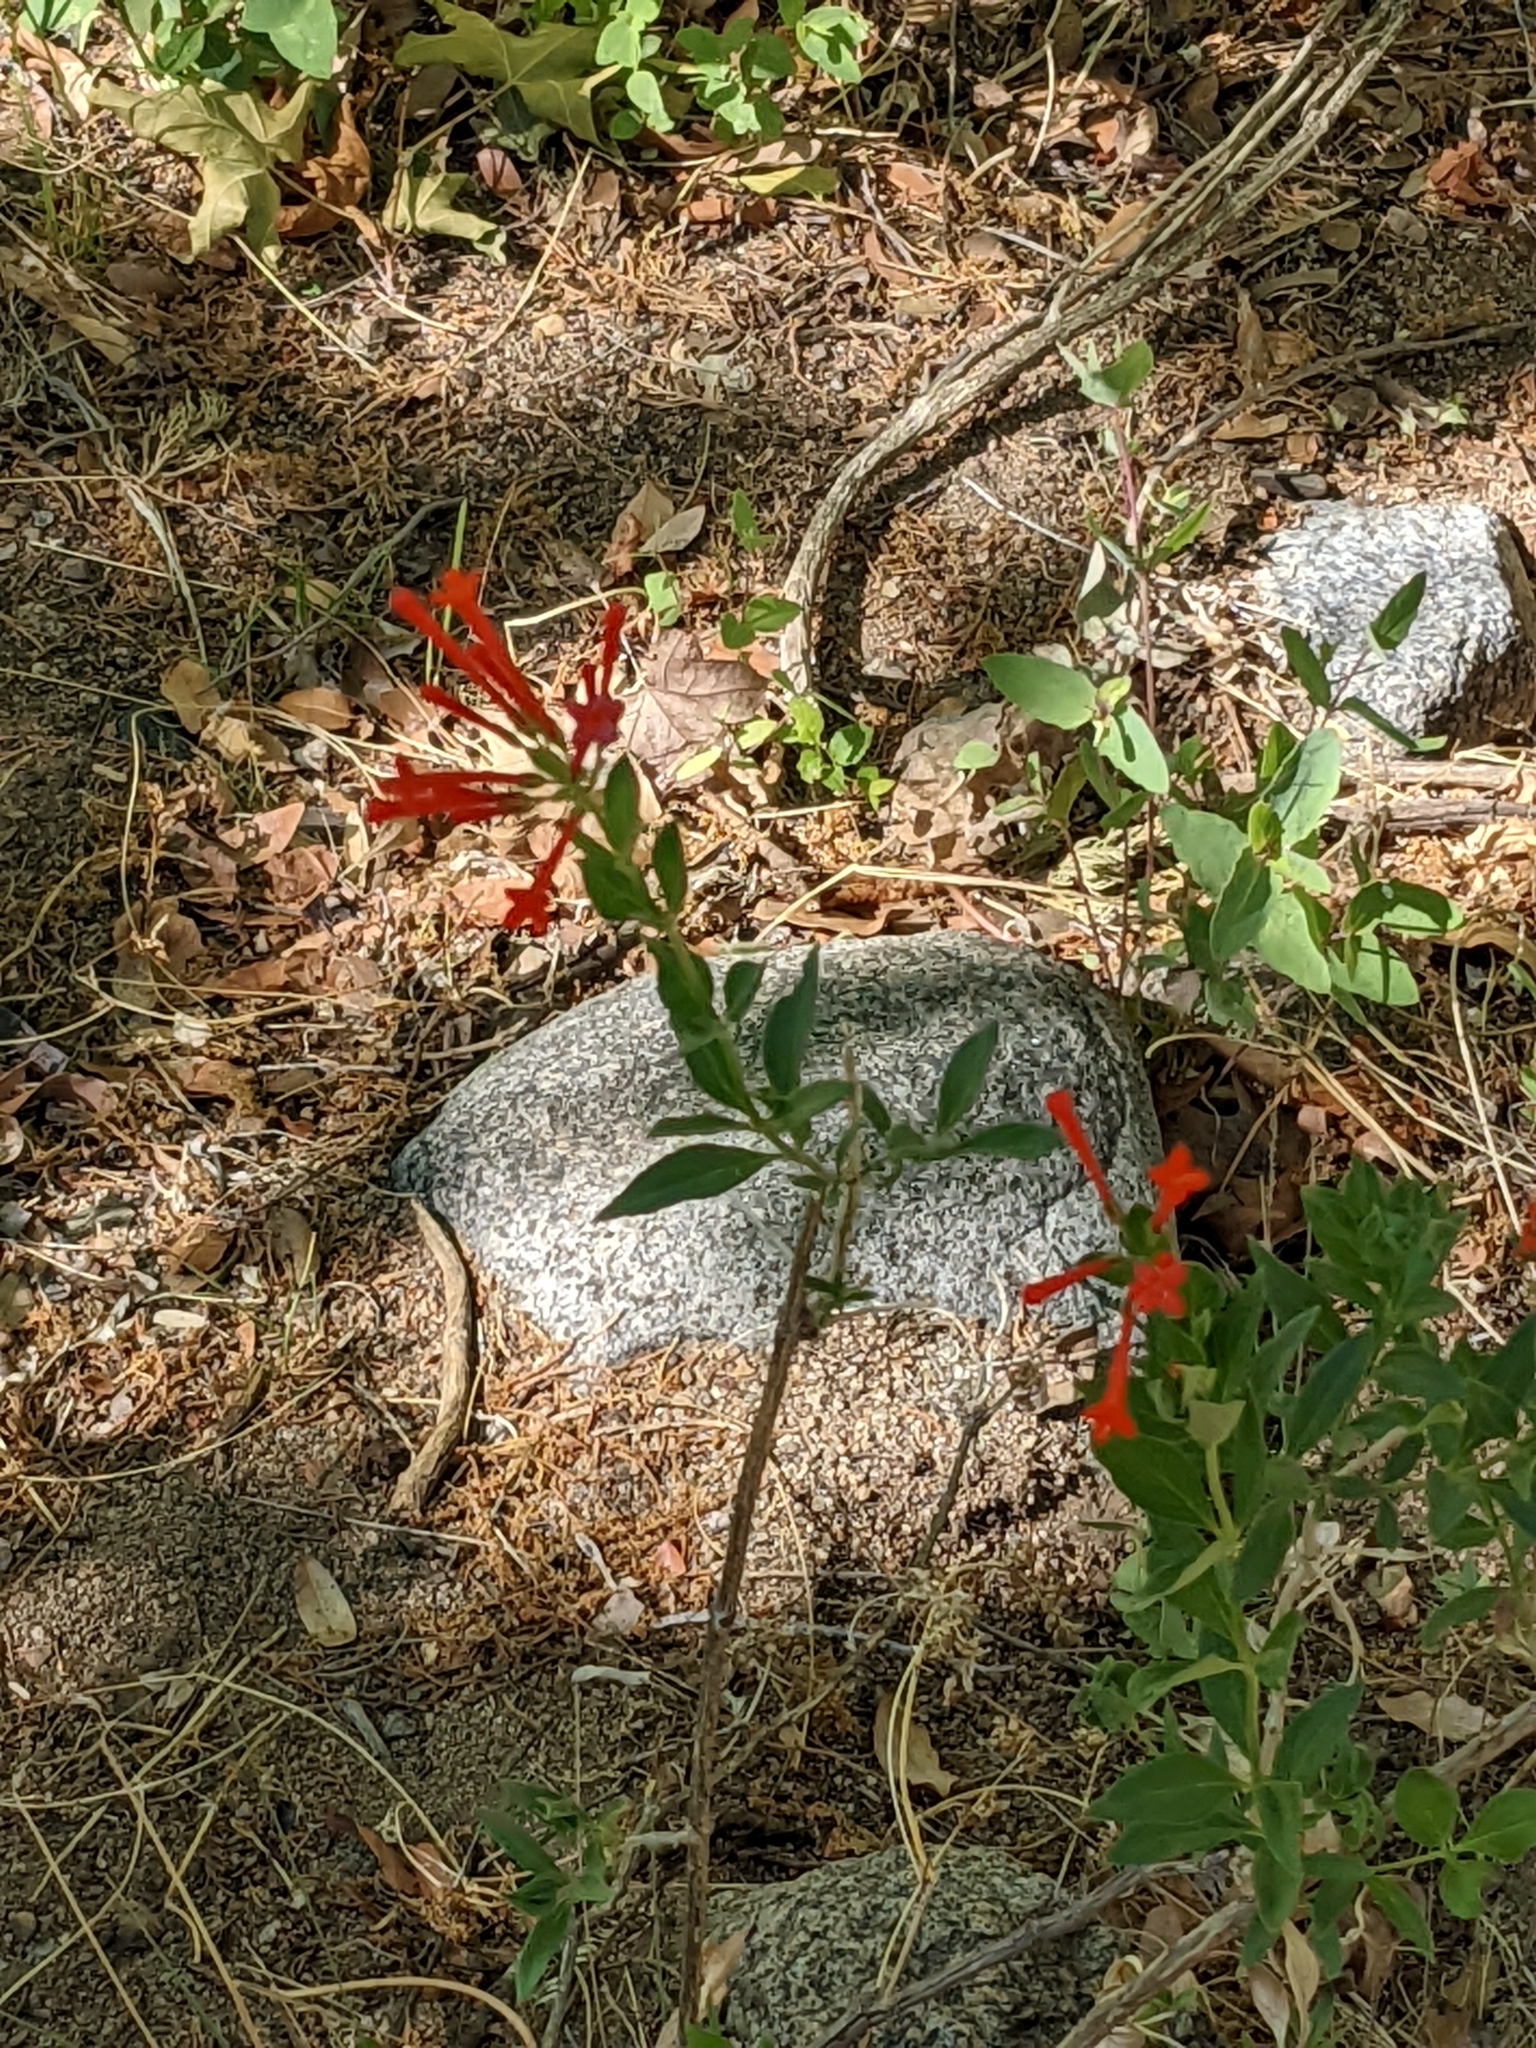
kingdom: Plantae
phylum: Tracheophyta
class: Magnoliopsida
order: Myrtales
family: Onagraceae
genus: Epilobium
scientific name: Epilobium canum
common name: California-fuchsia
